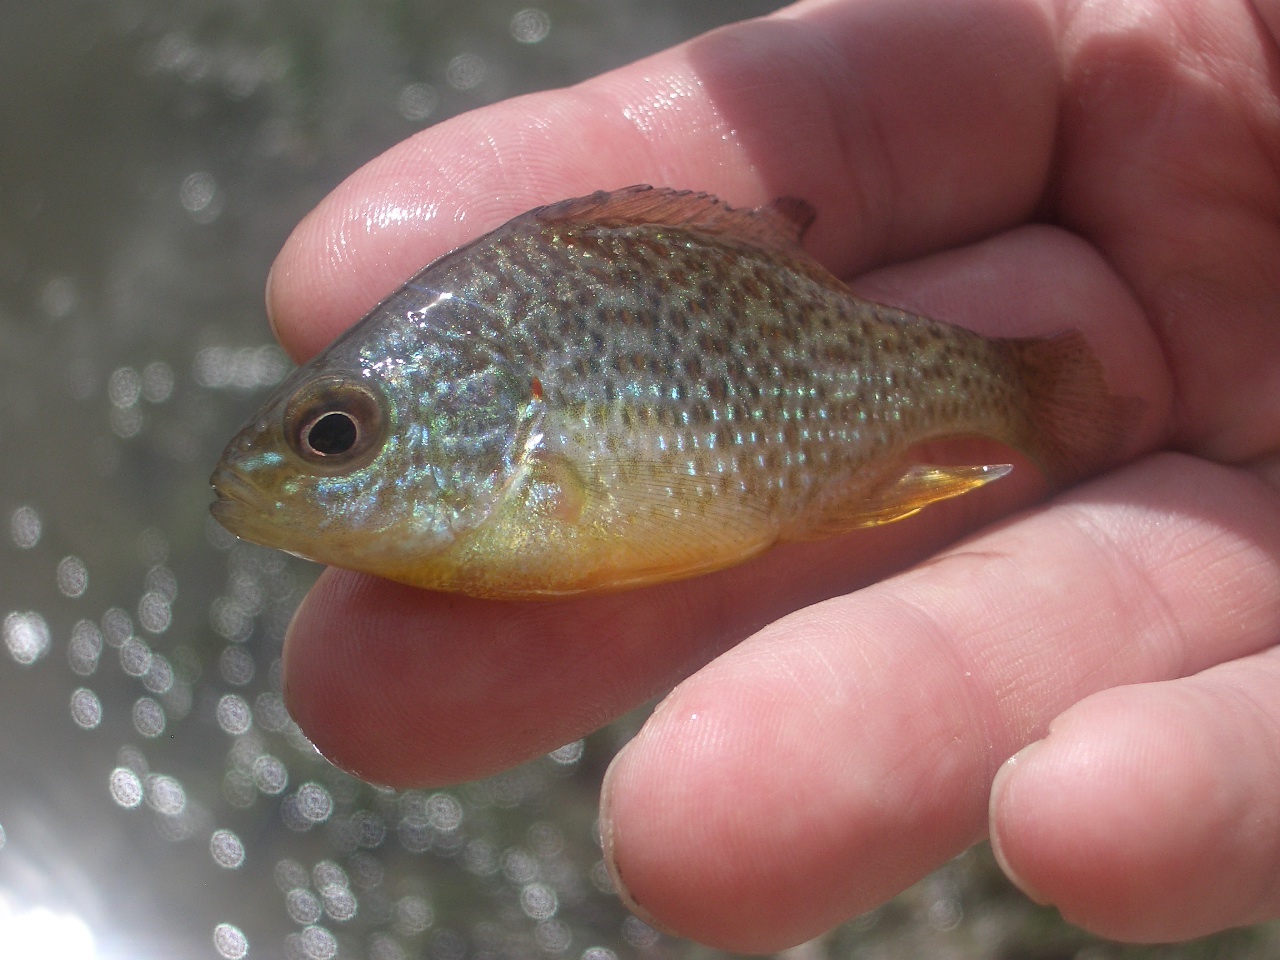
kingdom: Animalia
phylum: Chordata
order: Perciformes
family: Centrarchidae
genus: Lepomis
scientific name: Lepomis gibbosus
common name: Pumpkinseed
